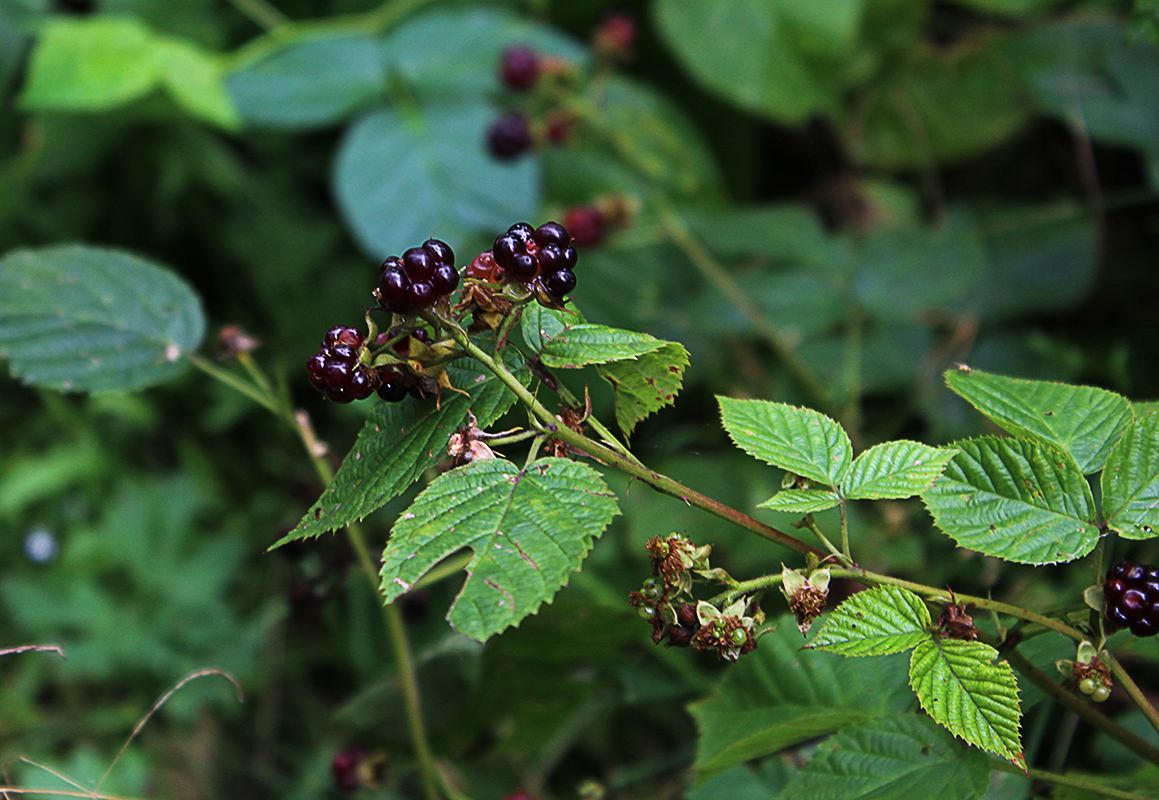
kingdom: Plantae
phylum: Tracheophyta
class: Magnoliopsida
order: Rosales
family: Rosaceae
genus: Rubus
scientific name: Rubus polonicus
